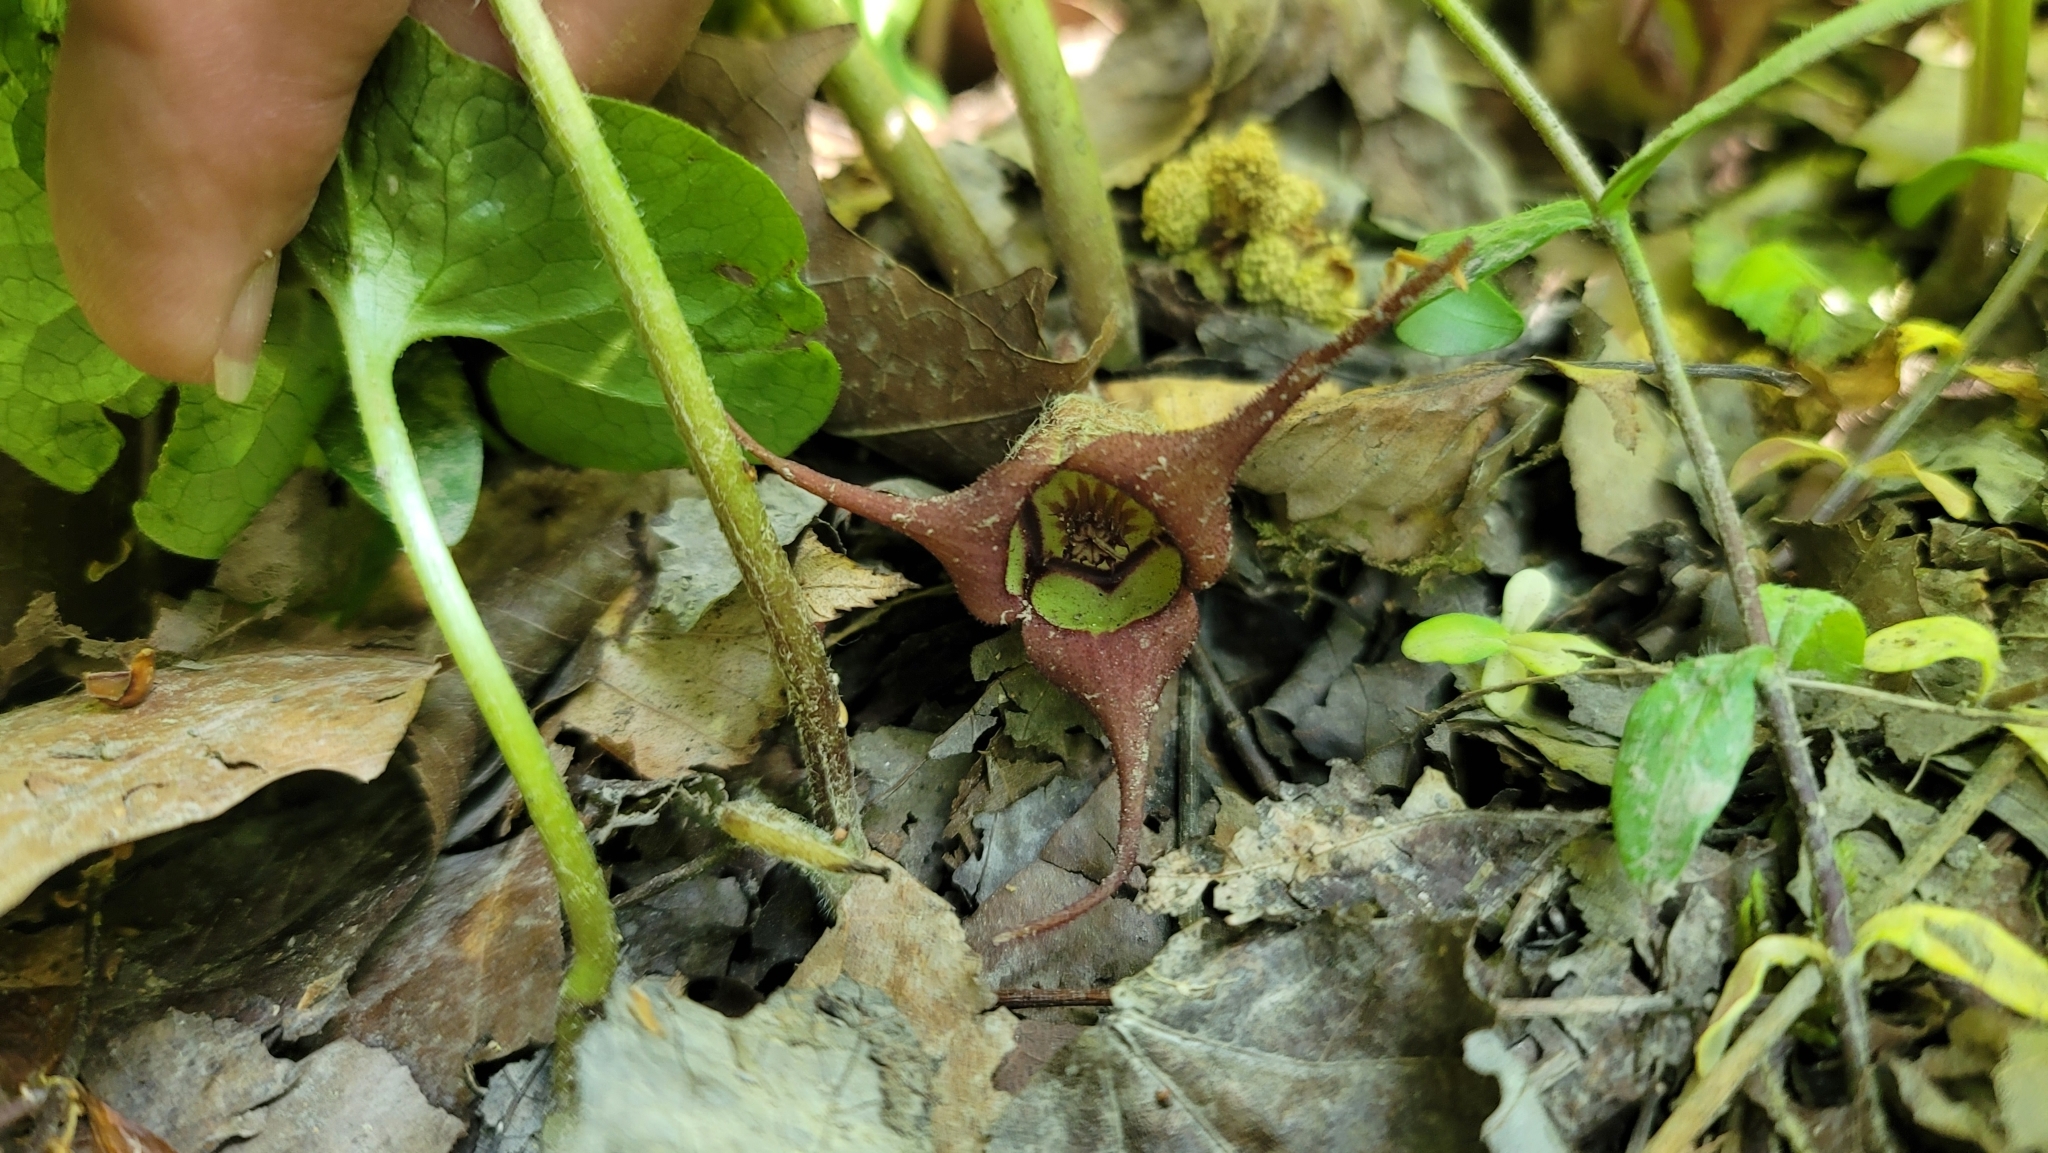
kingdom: Plantae
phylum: Tracheophyta
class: Magnoliopsida
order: Piperales
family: Aristolochiaceae
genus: Asarum
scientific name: Asarum canadense
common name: Wild ginger
